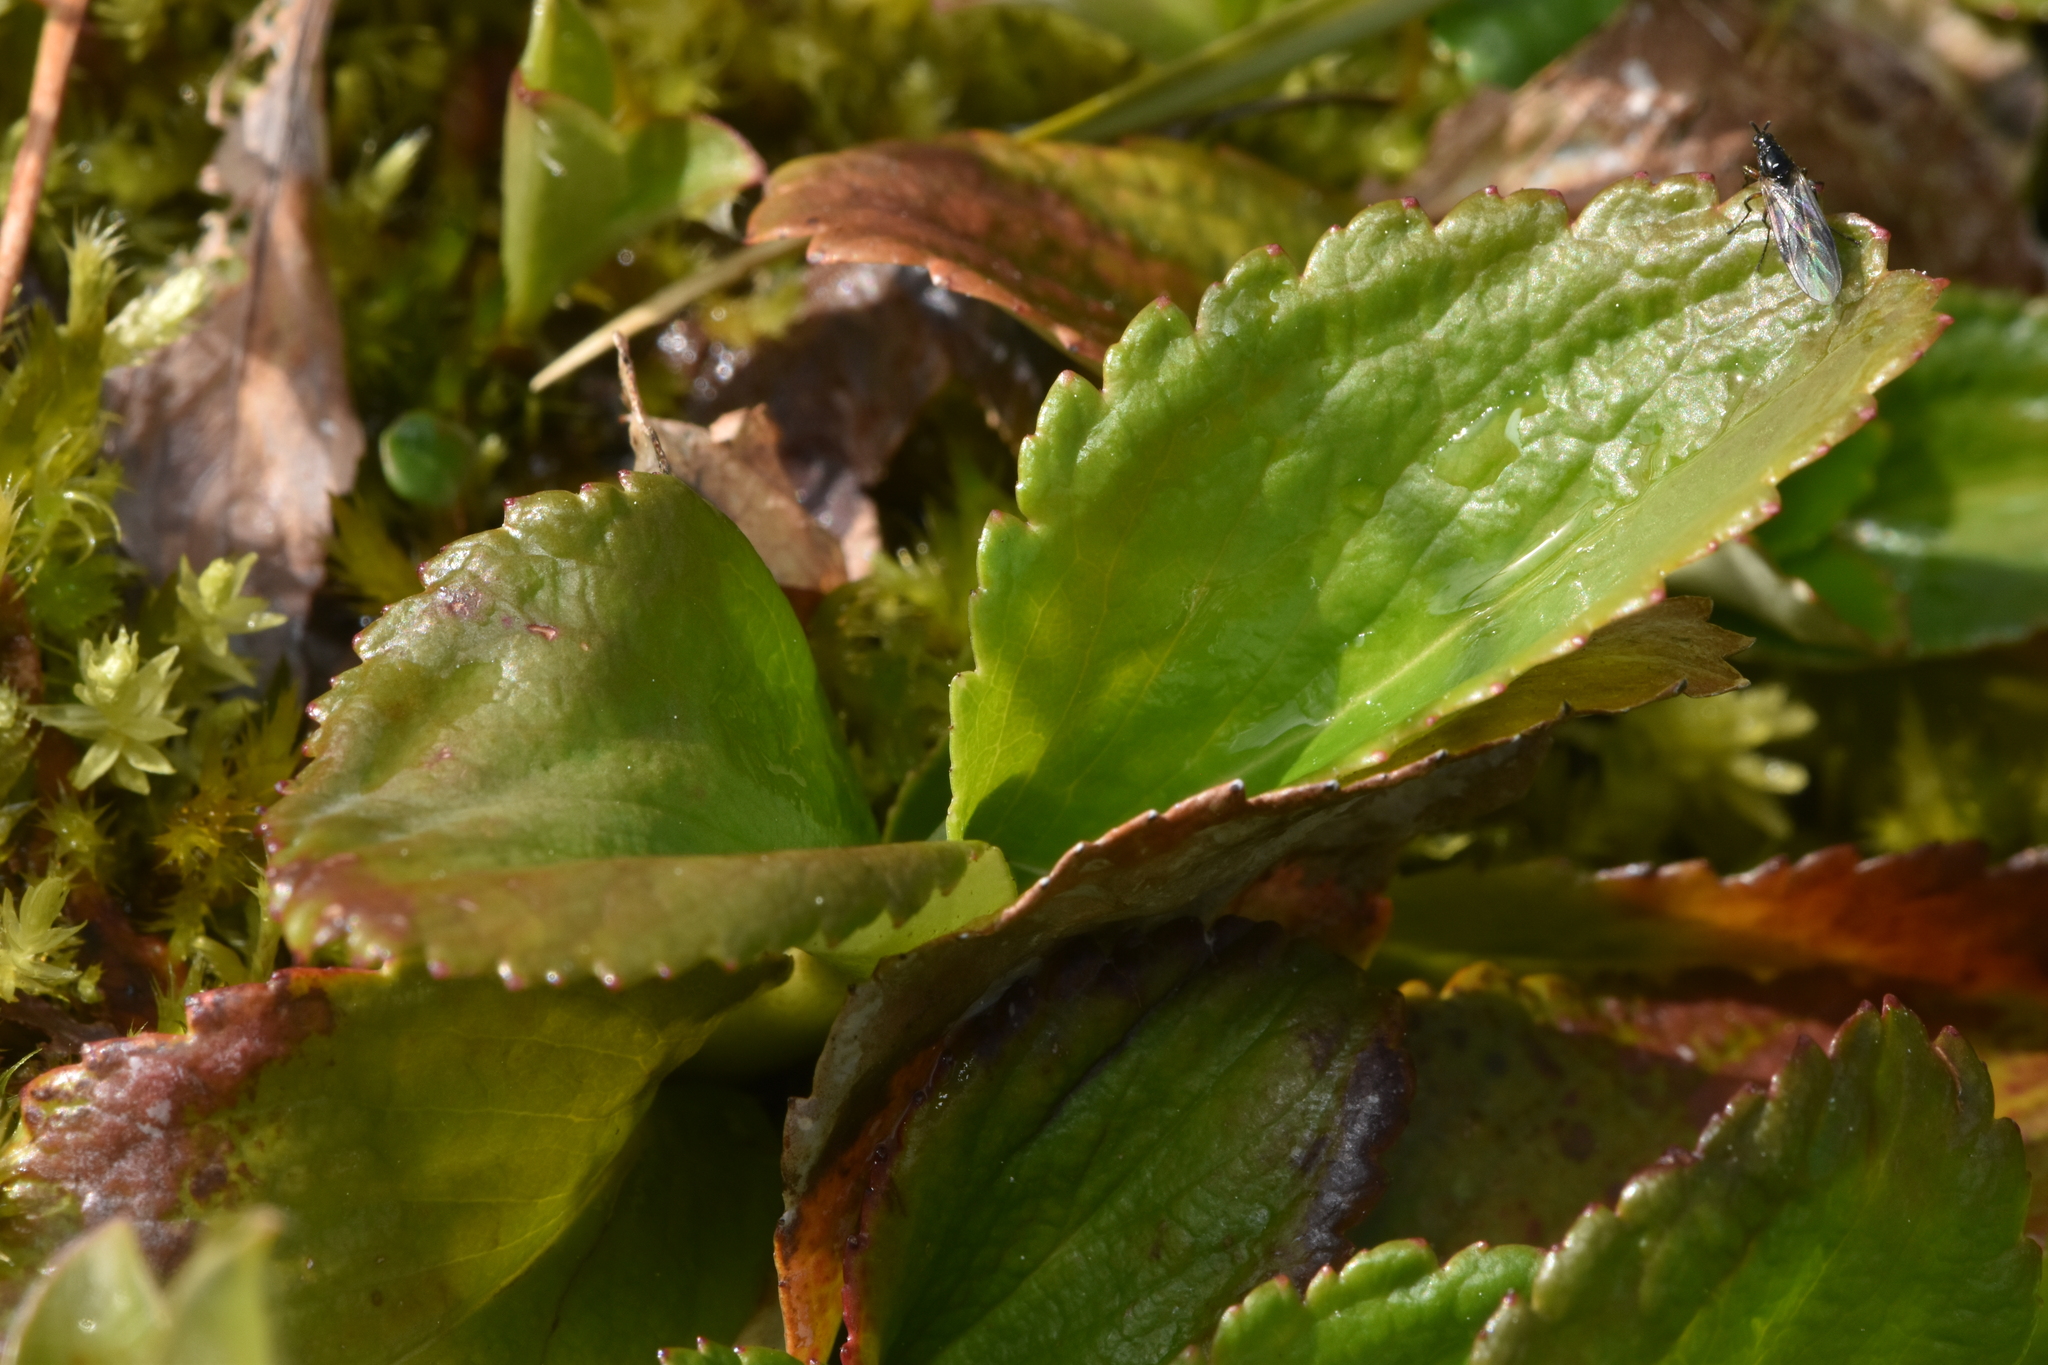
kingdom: Plantae
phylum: Tracheophyta
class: Magnoliopsida
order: Saxifragales
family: Saxifragaceae
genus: Leptarrhena
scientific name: Leptarrhena pyrolifolia
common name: Leatherleaf-saxifrage
